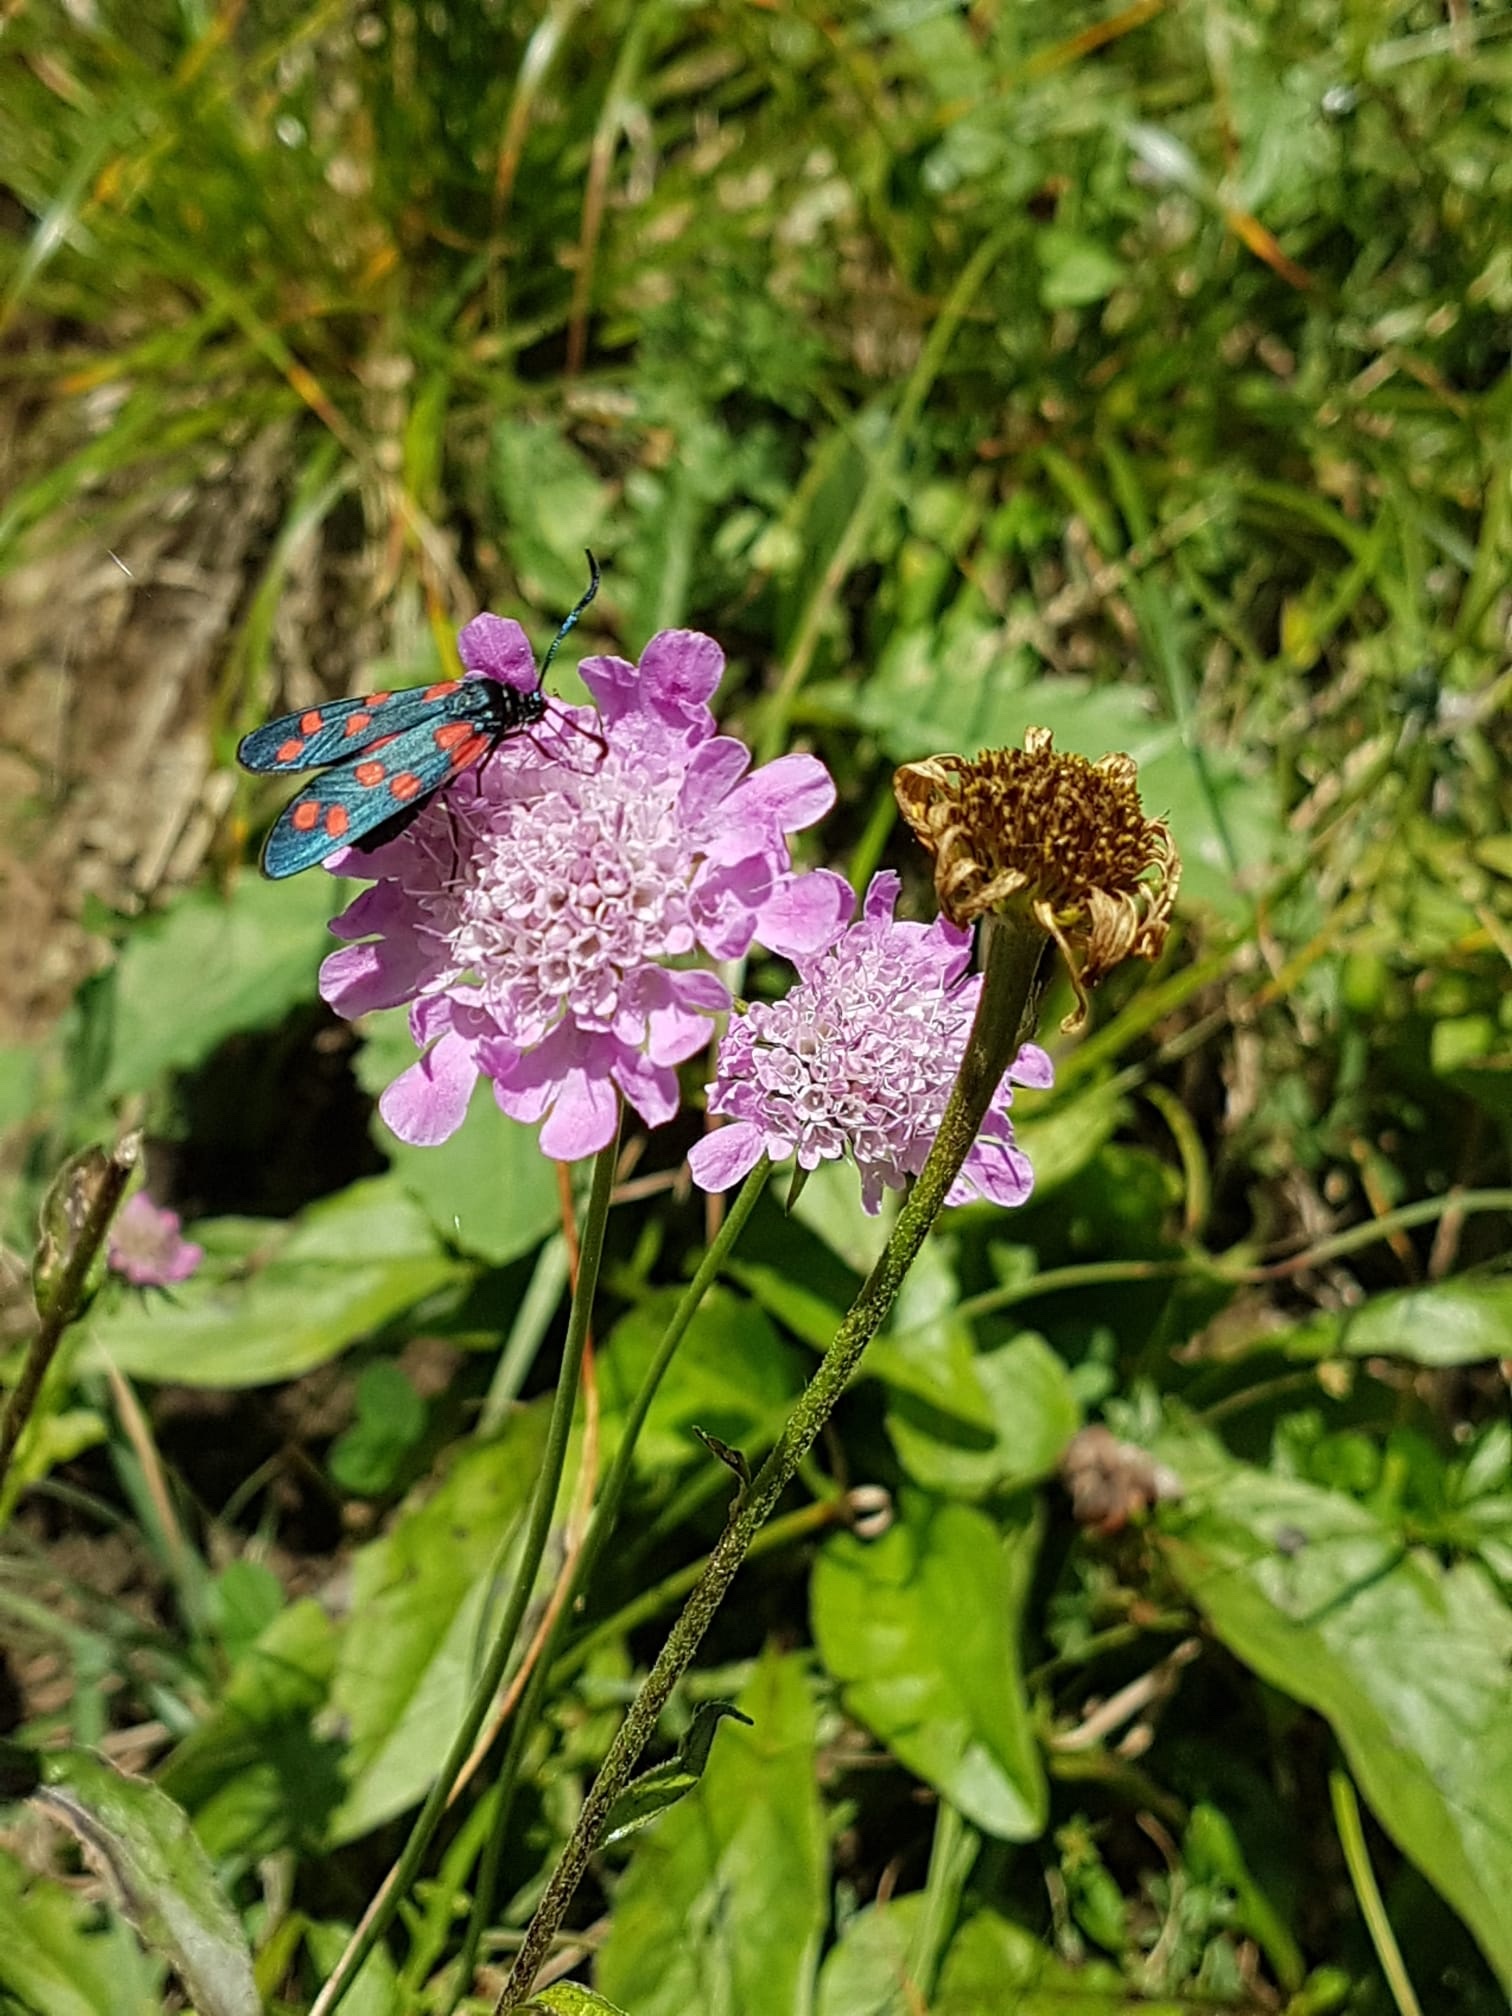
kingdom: Animalia
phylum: Arthropoda
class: Insecta
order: Lepidoptera
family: Zygaenidae
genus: Zygaena
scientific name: Zygaena transalpina
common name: Southern six spot burnet
